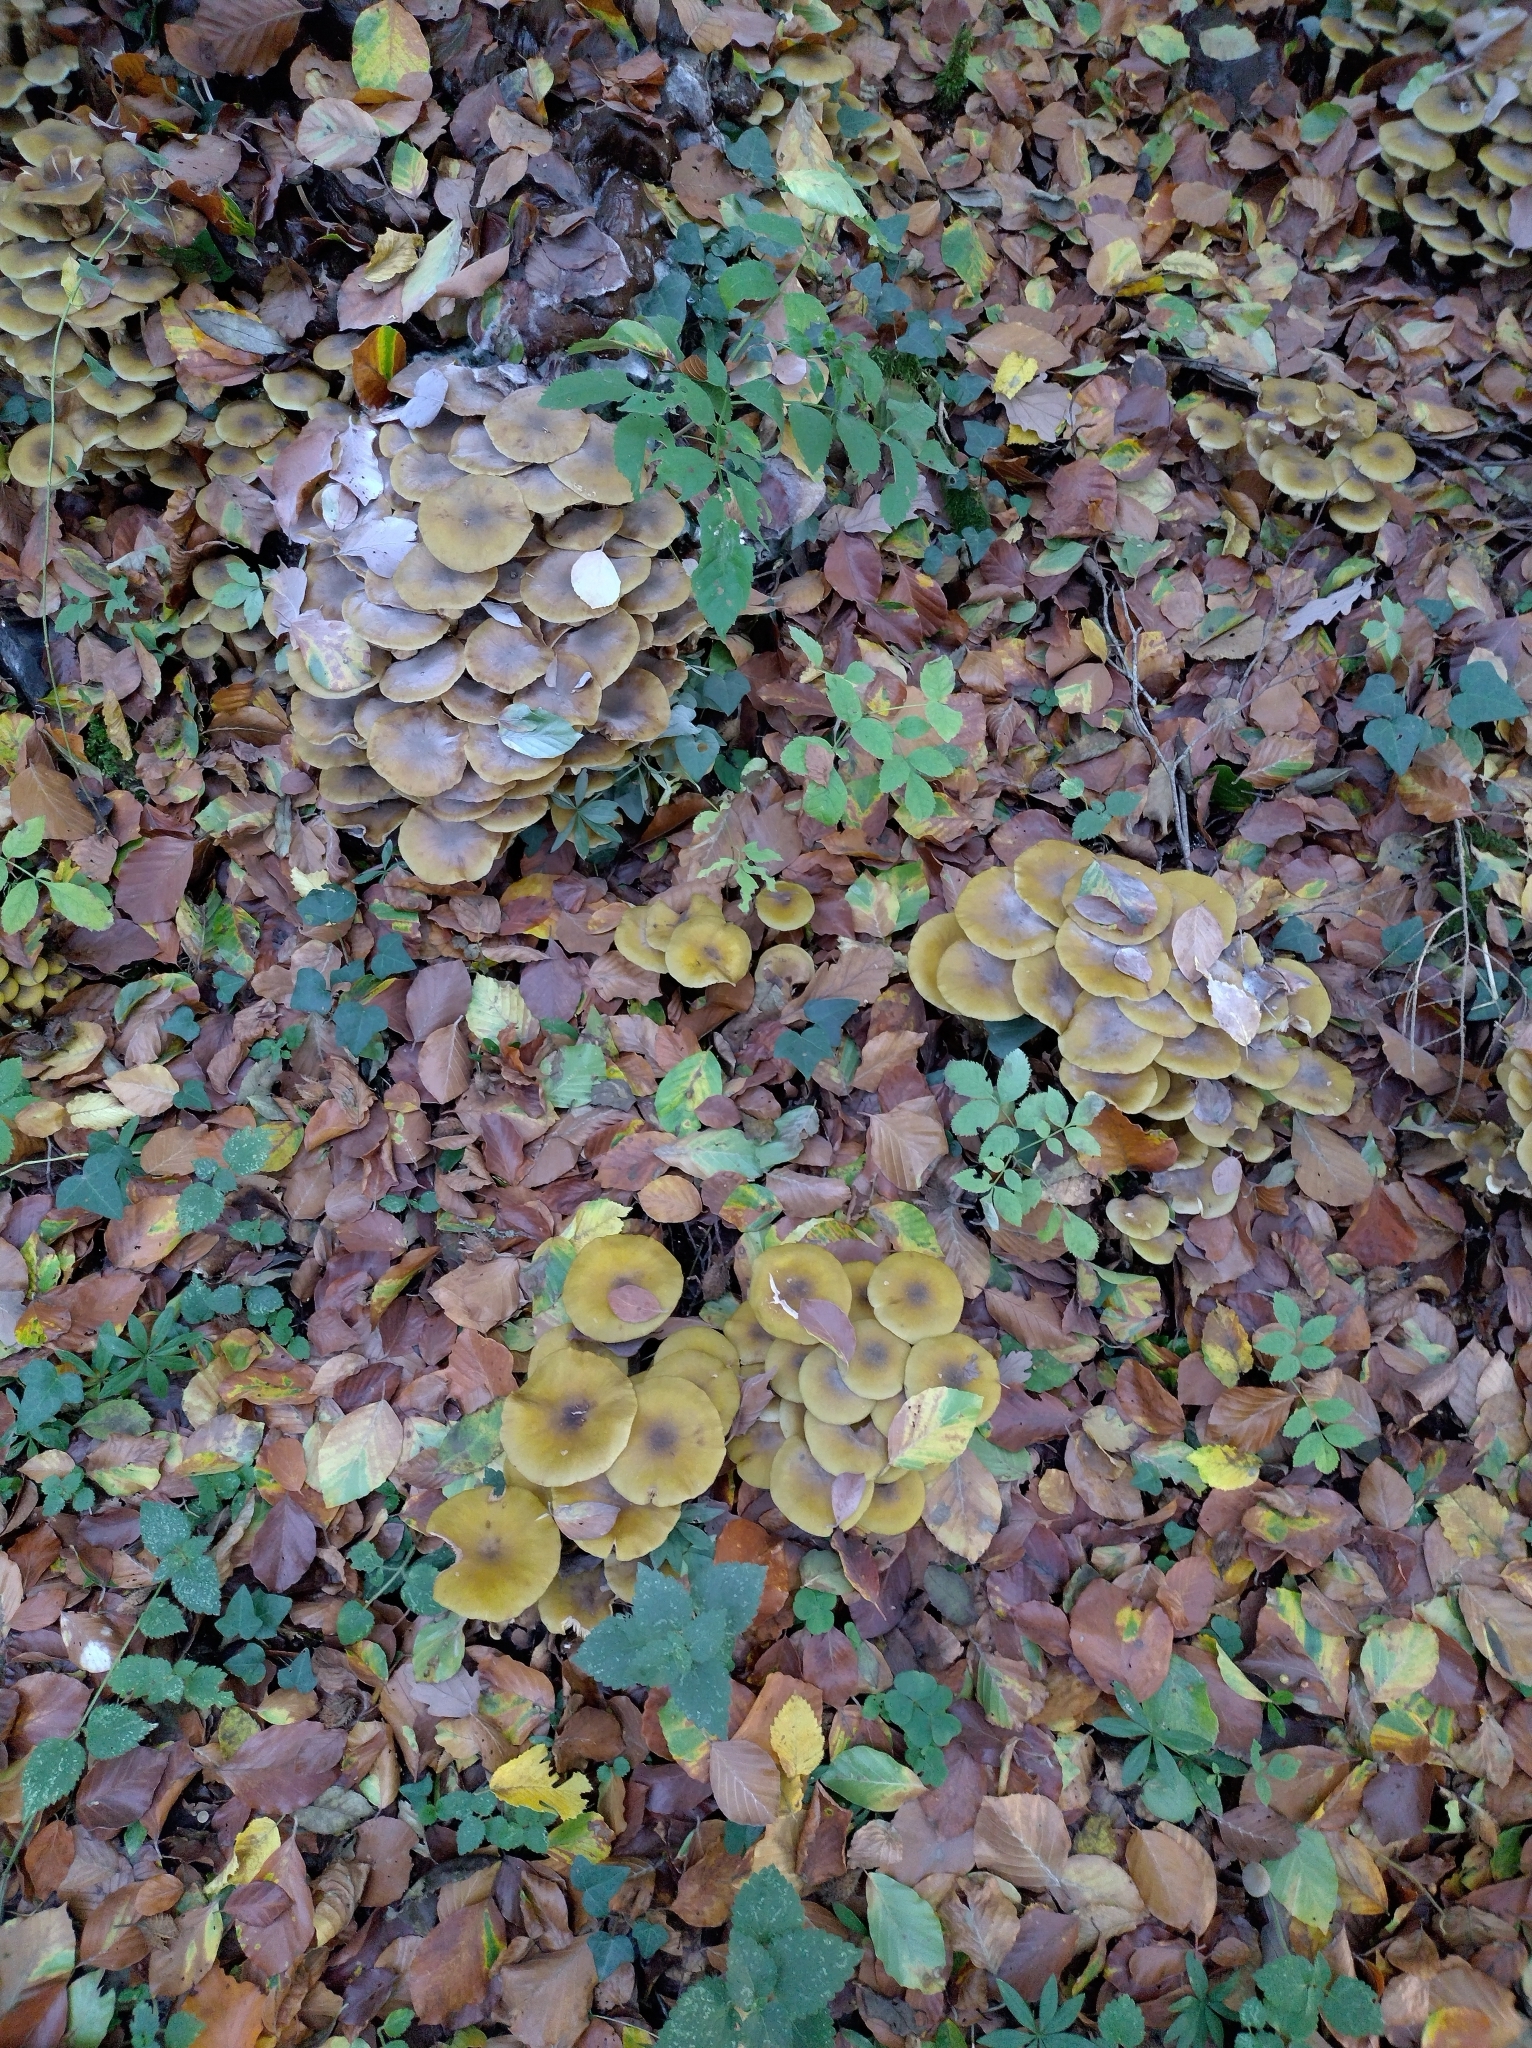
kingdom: Fungi
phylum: Basidiomycota
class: Agaricomycetes
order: Agaricales
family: Physalacriaceae
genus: Armillaria
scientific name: Armillaria mellea
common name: Honey fungus
